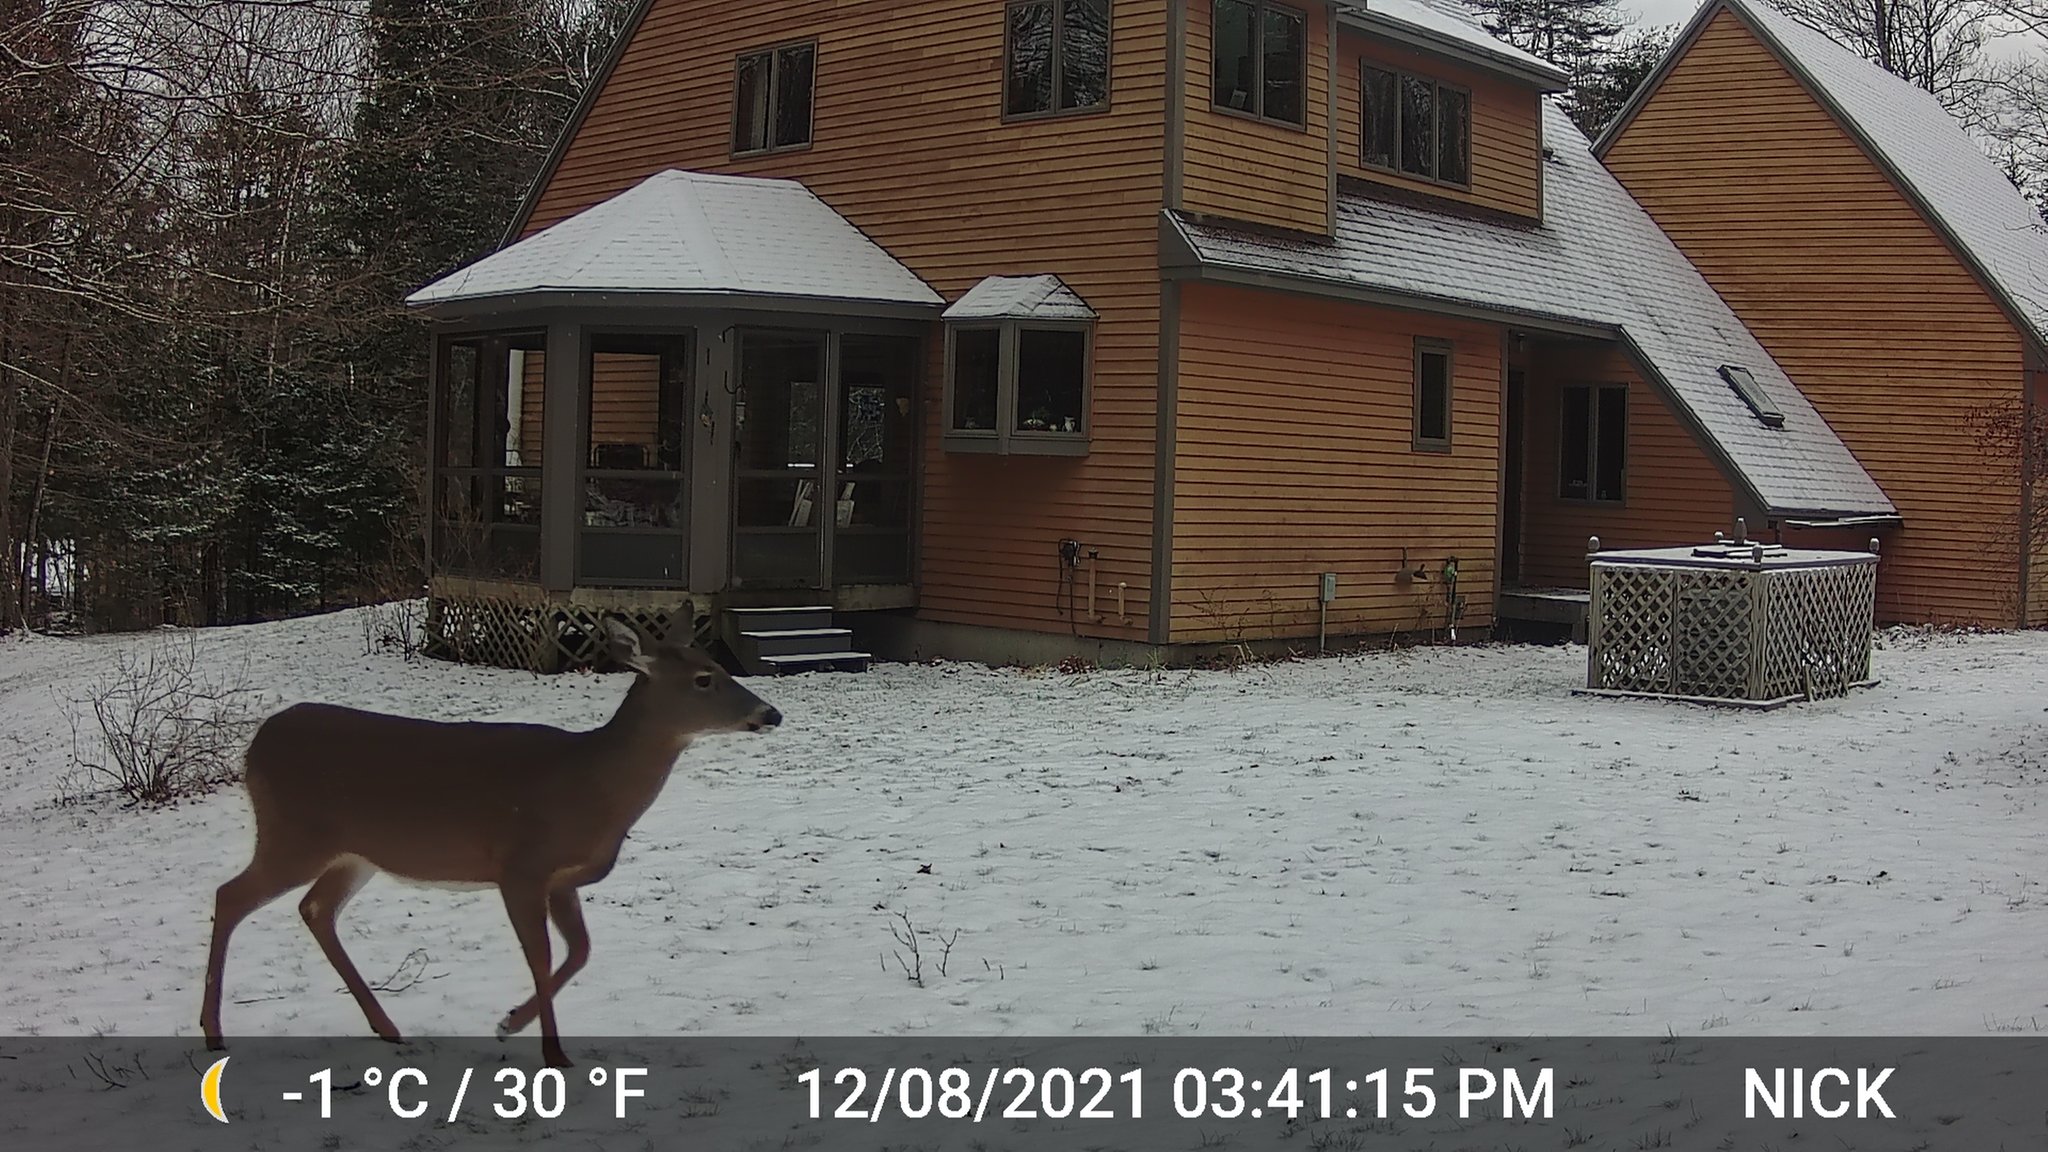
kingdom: Animalia
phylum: Chordata
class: Mammalia
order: Artiodactyla
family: Cervidae
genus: Odocoileus
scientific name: Odocoileus virginianus
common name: White-tailed deer
